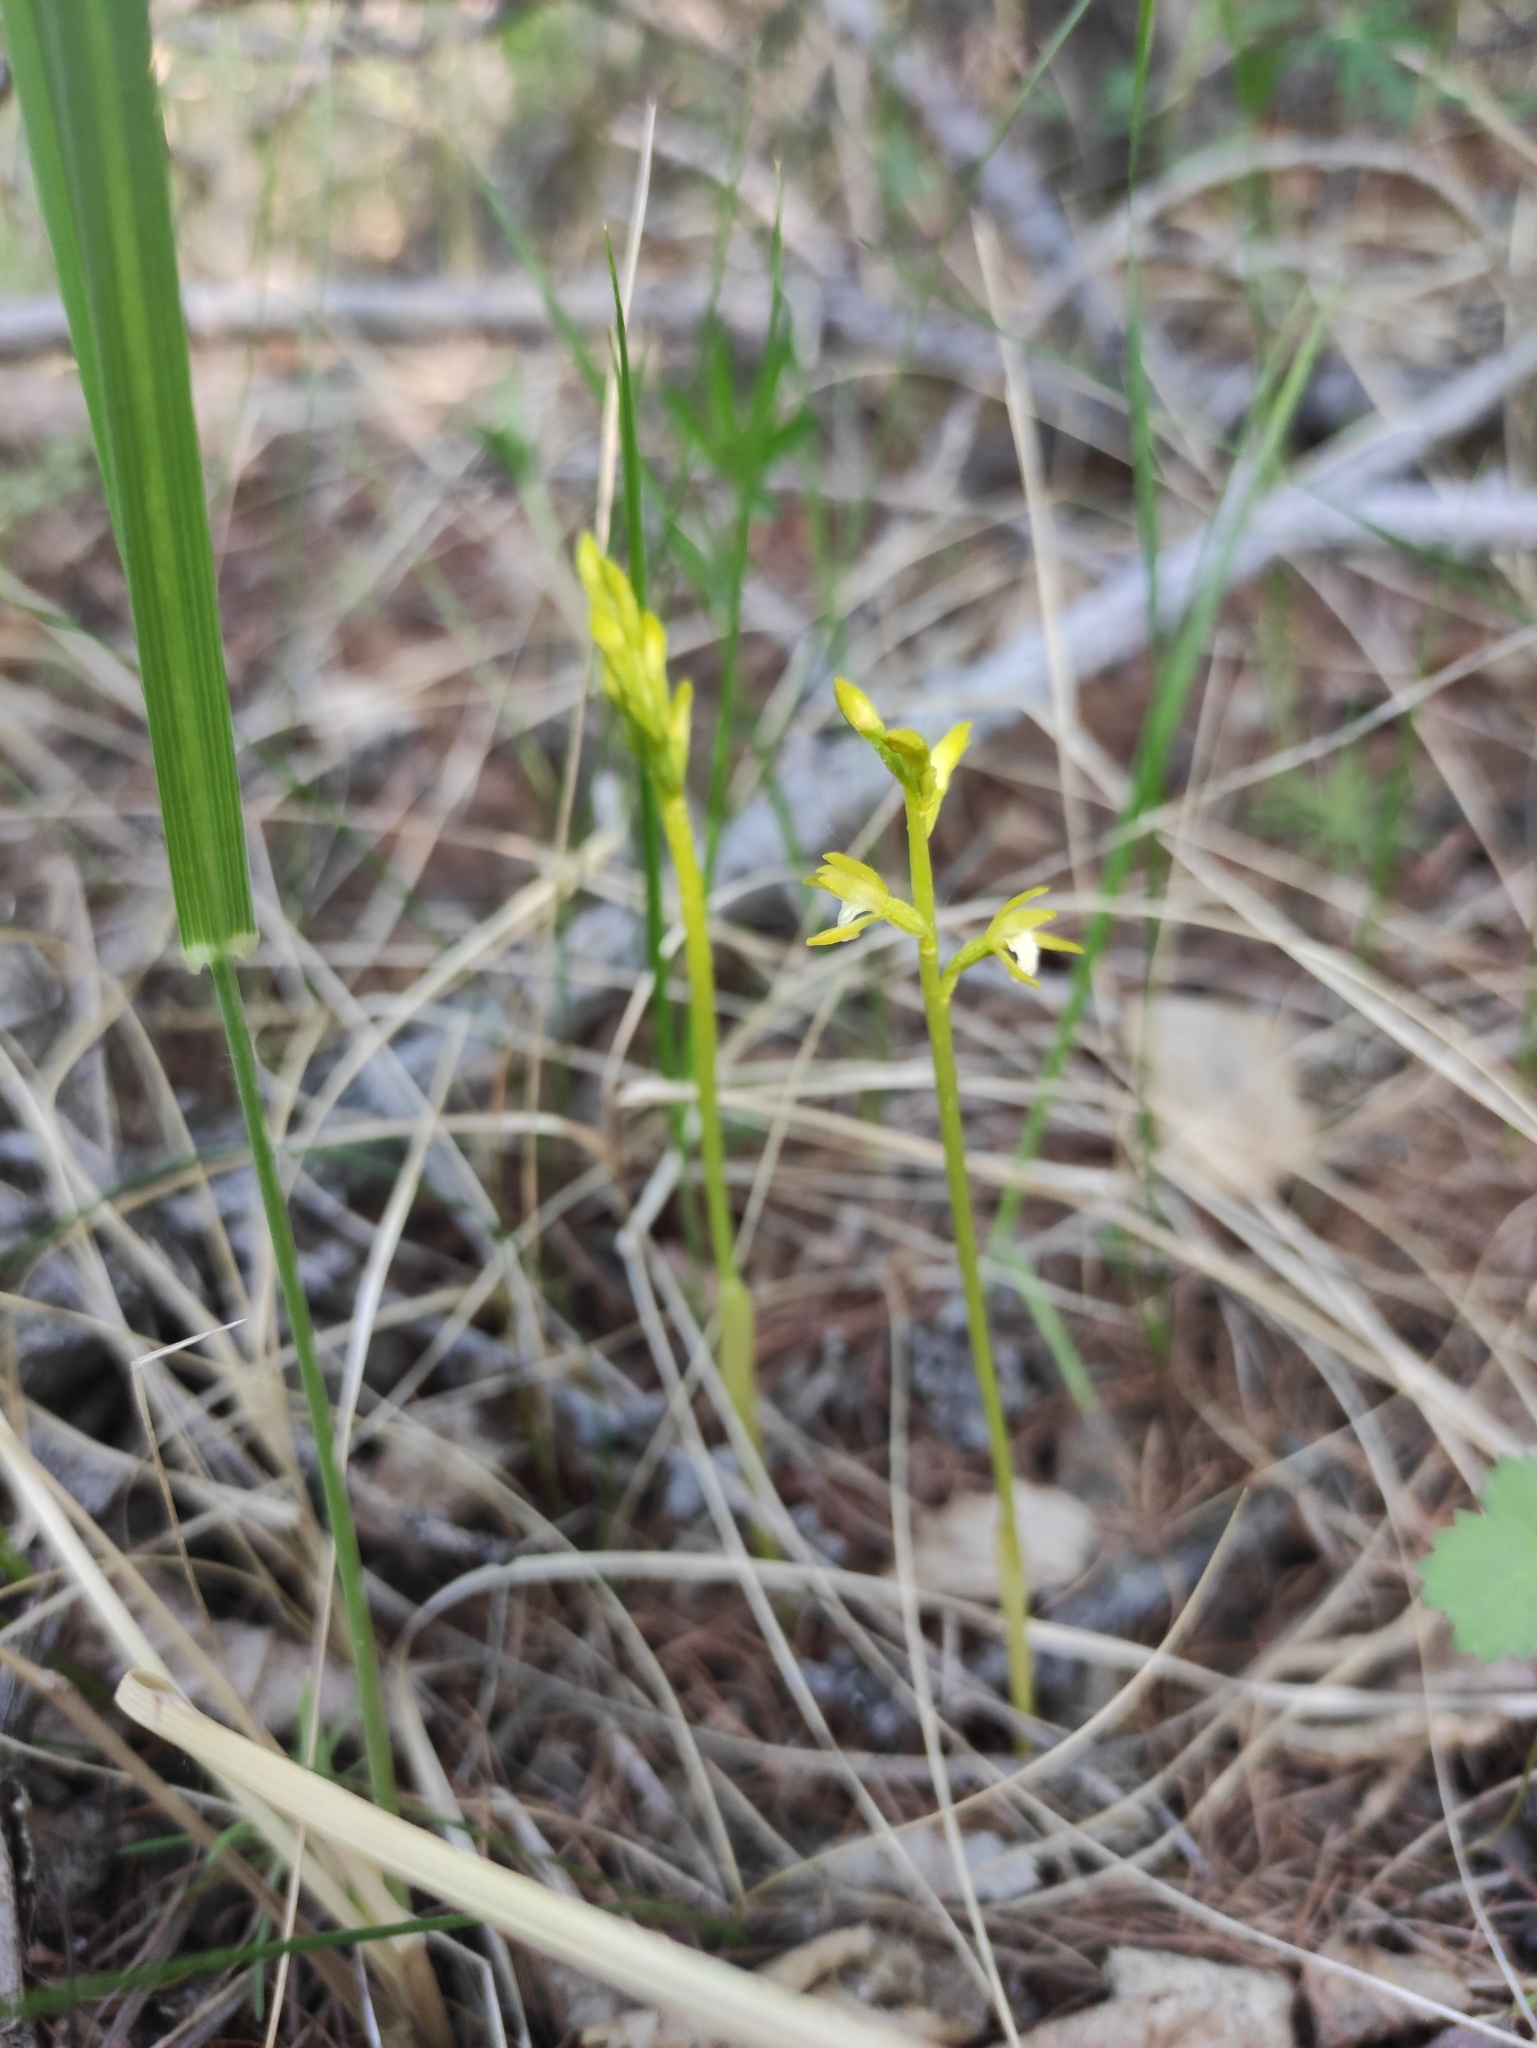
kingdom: Plantae
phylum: Tracheophyta
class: Liliopsida
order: Asparagales
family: Orchidaceae
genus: Corallorhiza
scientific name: Corallorhiza trifida
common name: Yellow coralroot
